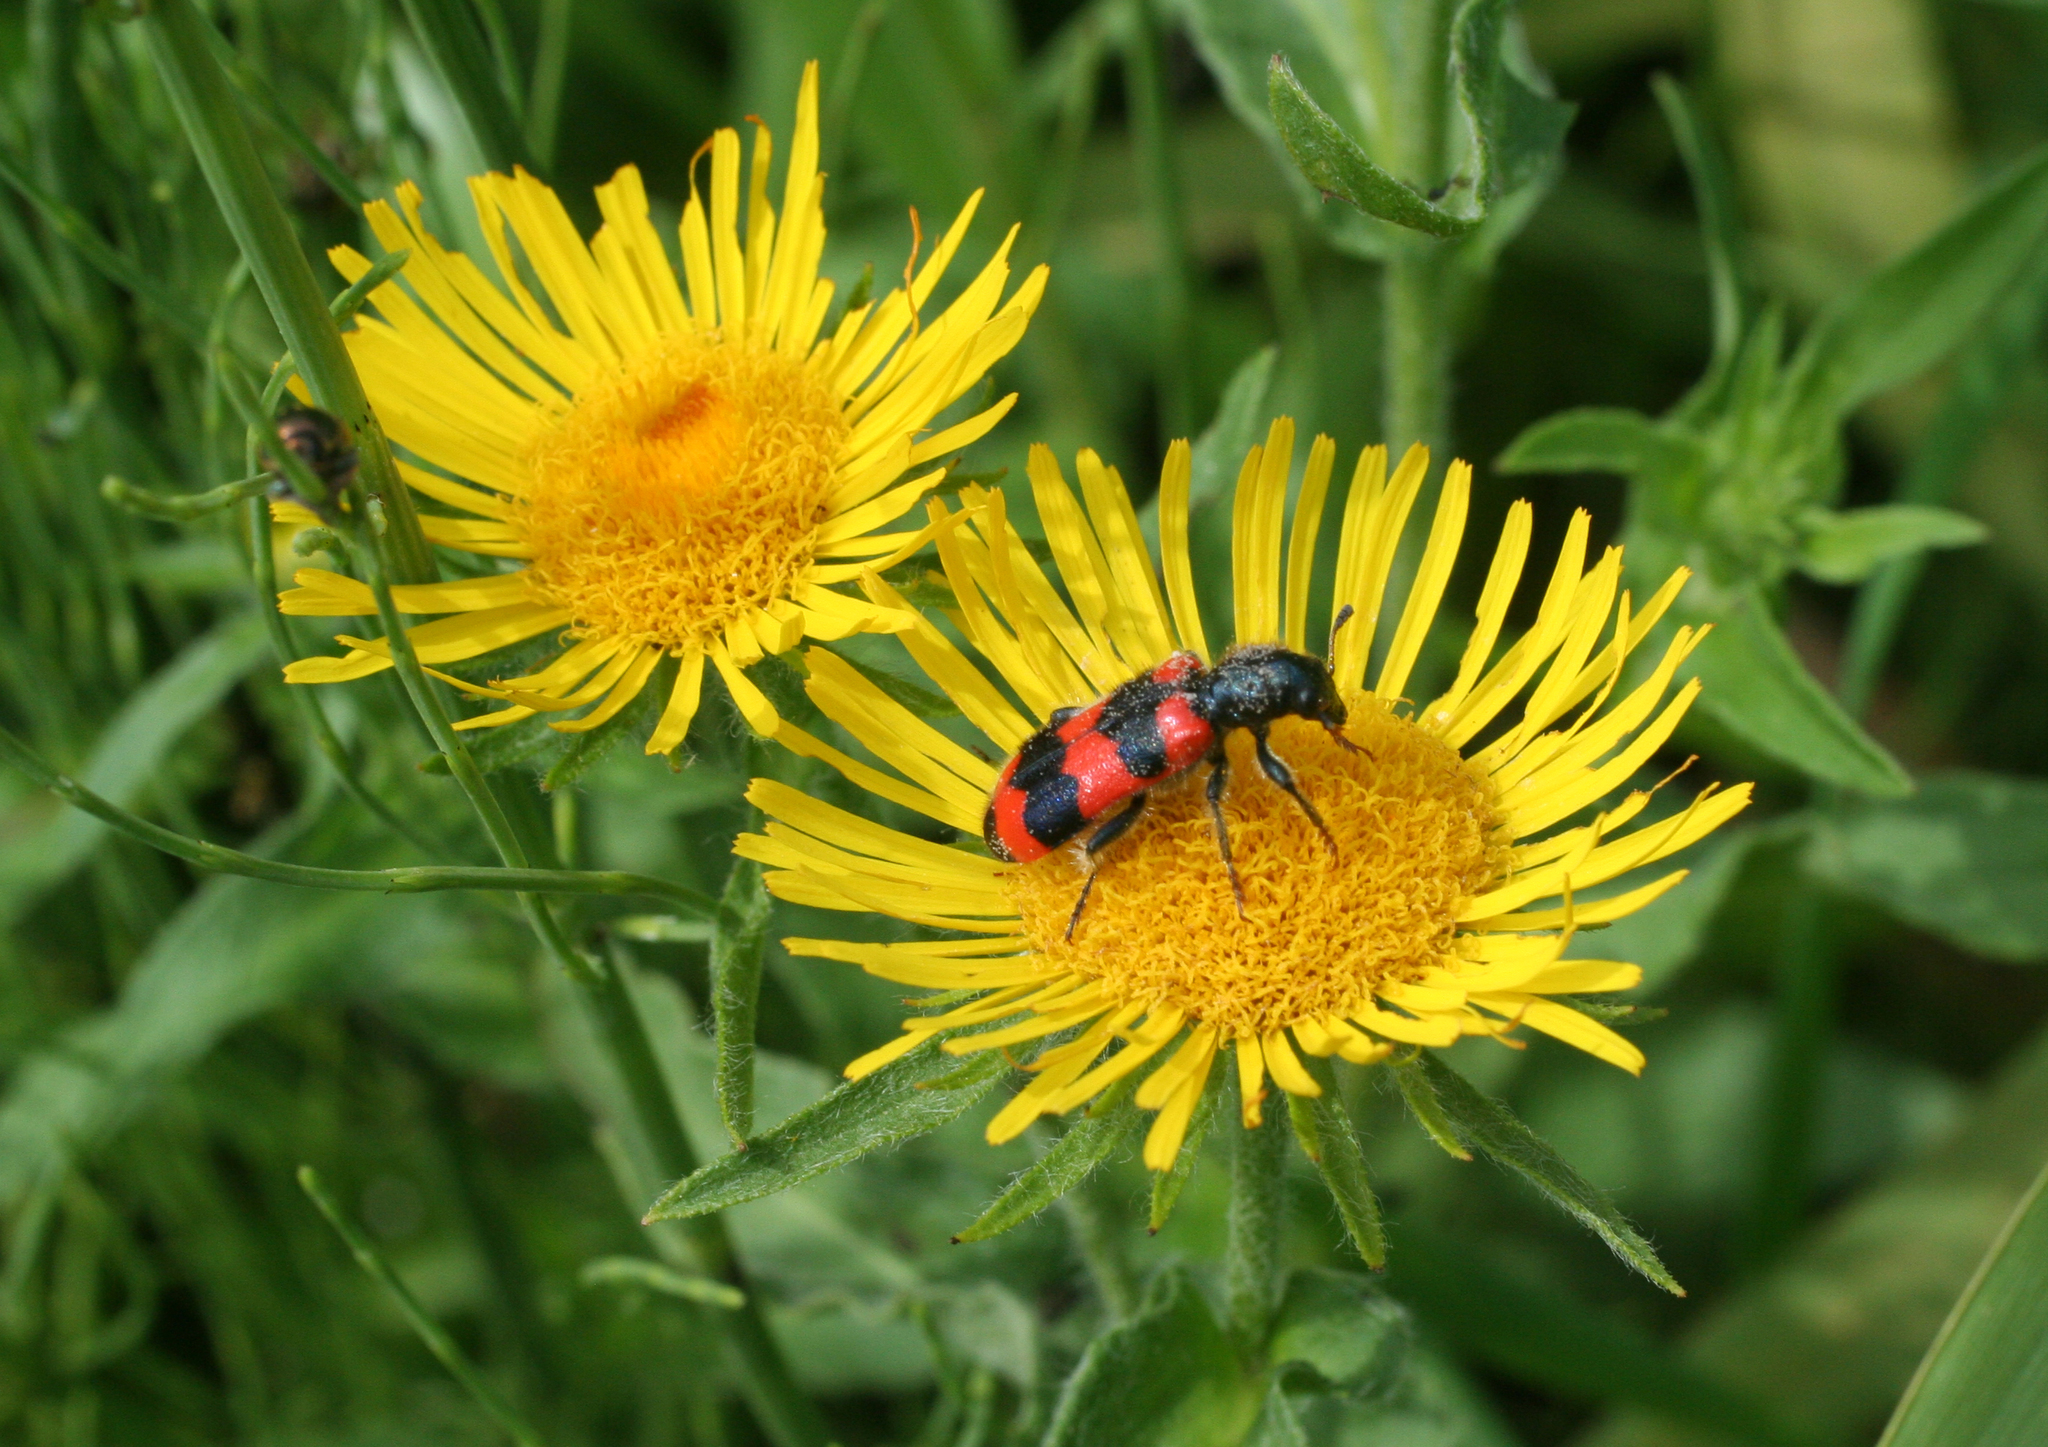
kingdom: Plantae
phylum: Tracheophyta
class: Magnoliopsida
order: Asterales
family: Asteraceae
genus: Pentanema
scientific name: Pentanema britannicum
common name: British elecampane
